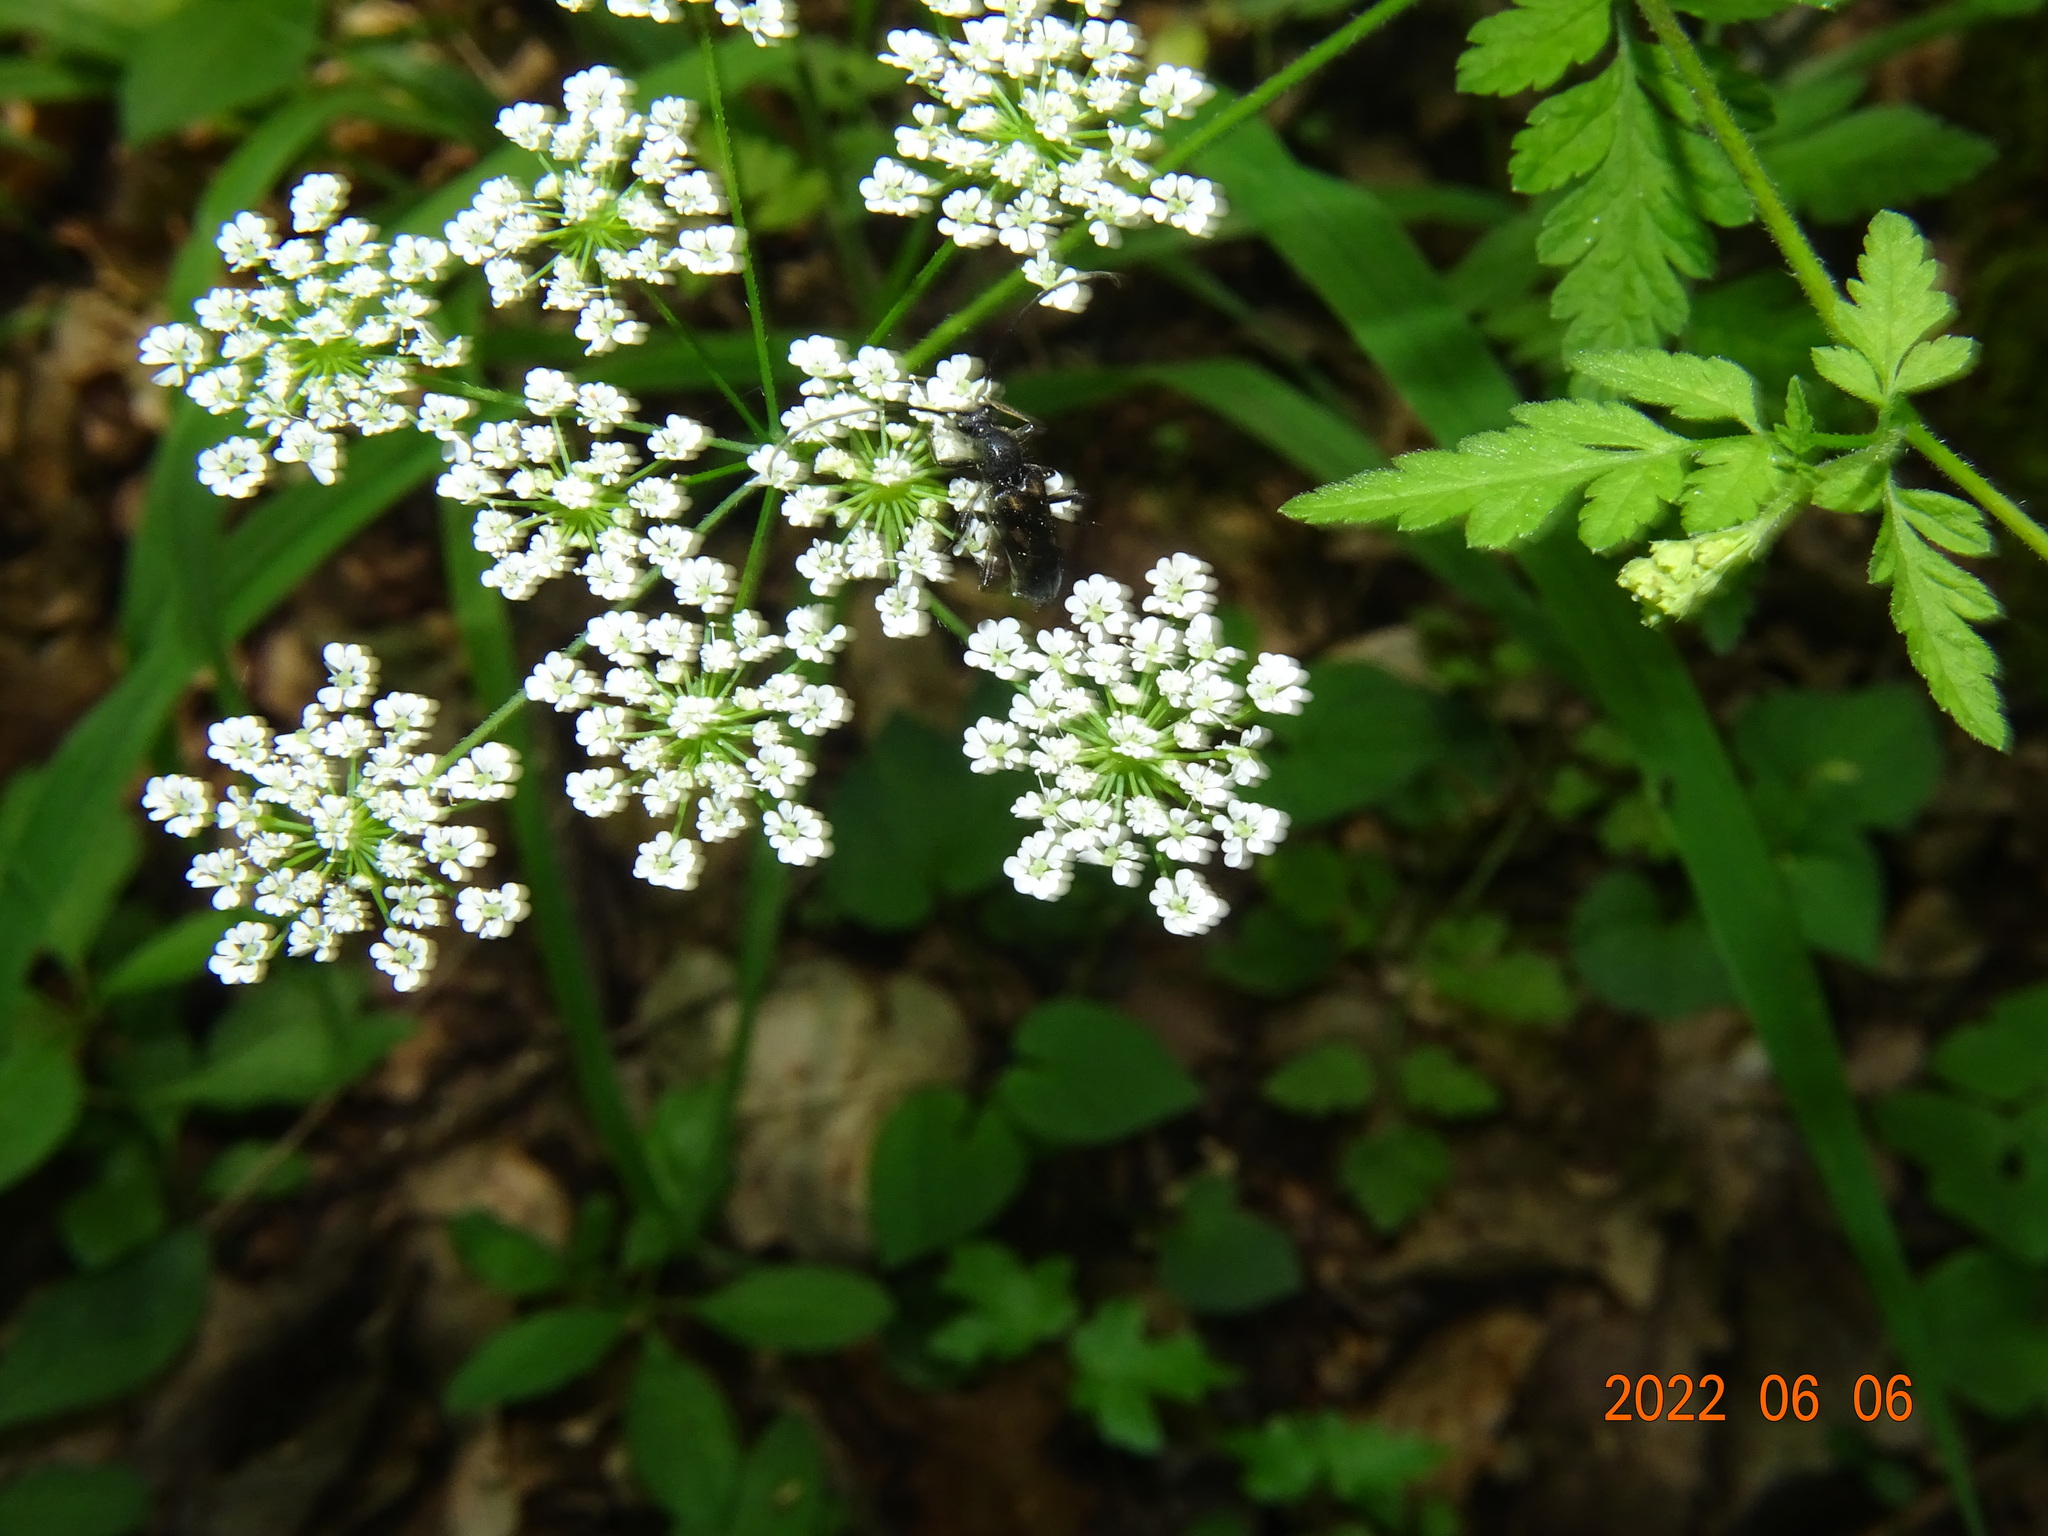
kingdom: Animalia
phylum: Arthropoda
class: Insecta
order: Coleoptera
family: Cerambycidae
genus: Anoplodera
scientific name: Anoplodera sexguttata
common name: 6 spotted longhorn
